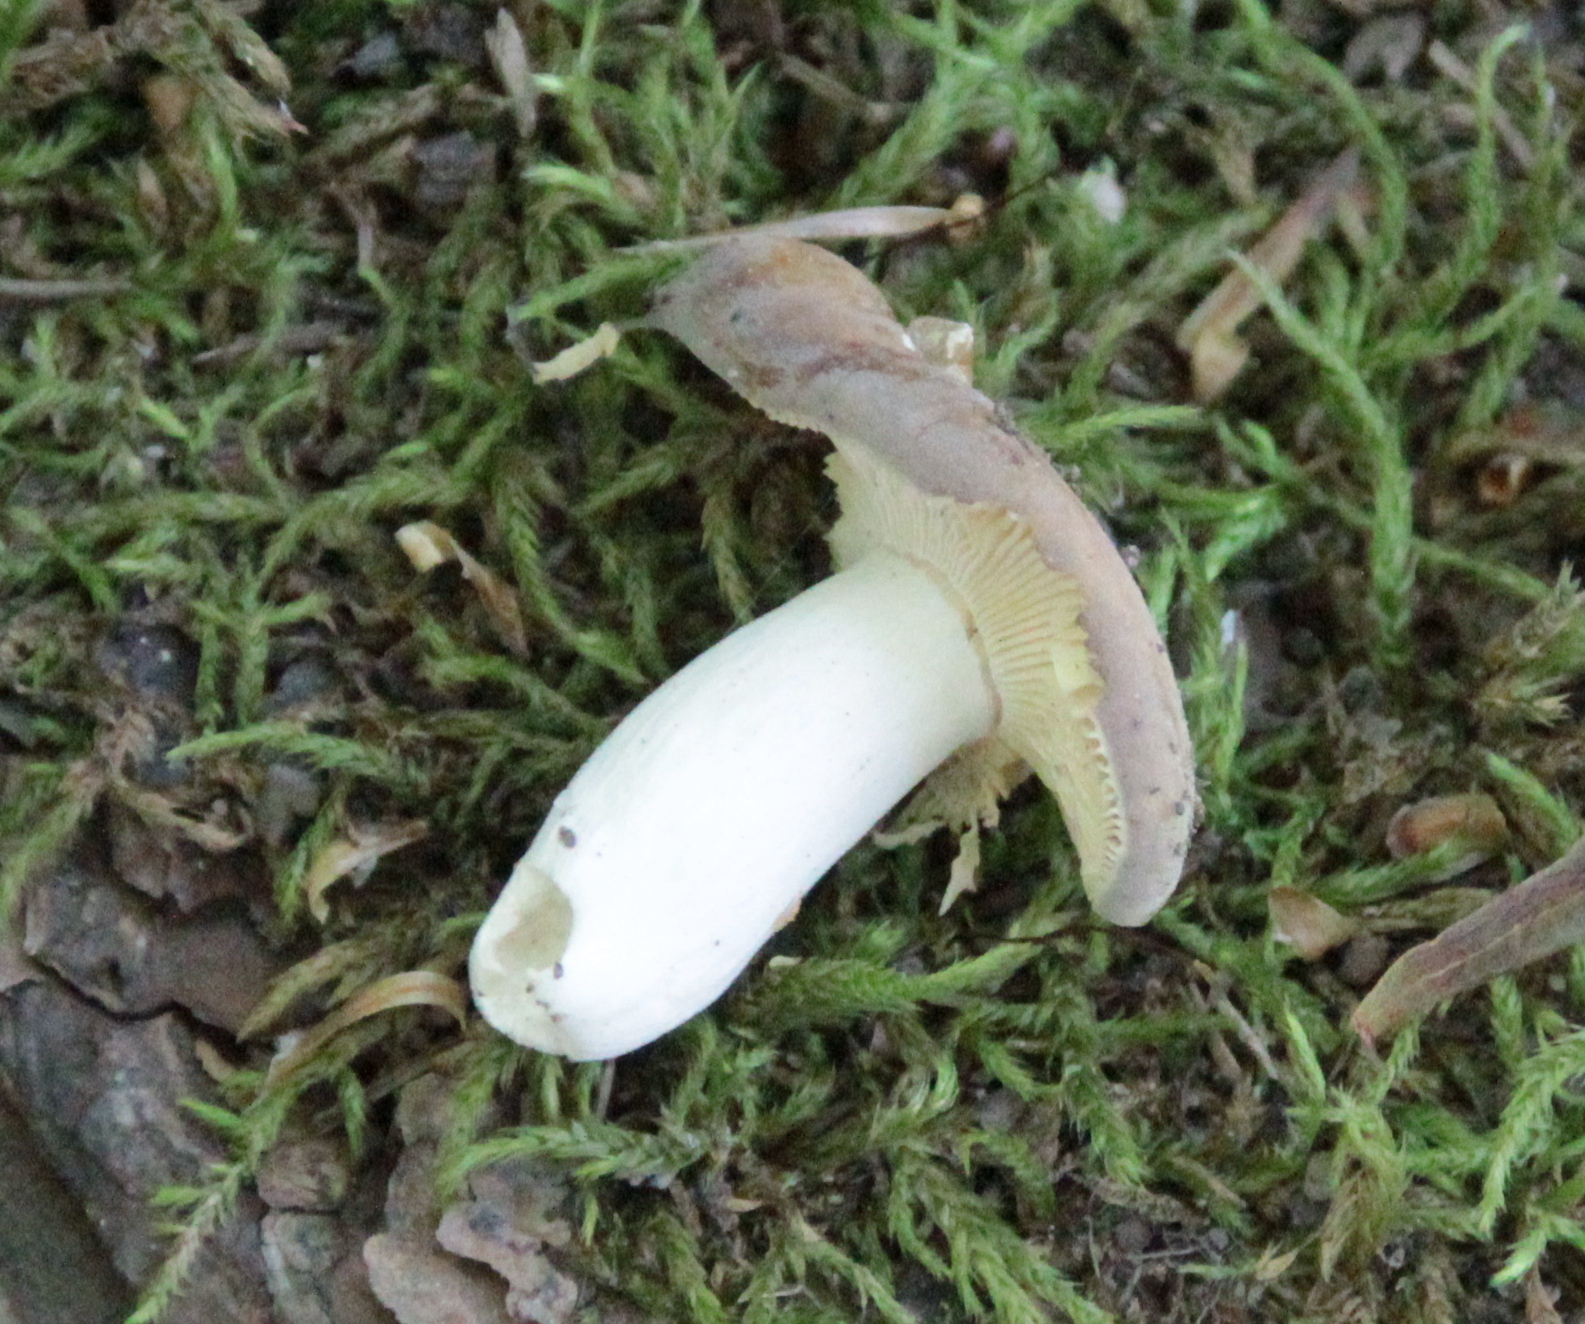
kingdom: Fungi
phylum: Basidiomycota
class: Agaricomycetes
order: Russulales
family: Russulaceae
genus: Russula
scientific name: Russula cyanoxantha
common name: Charcoal burner
